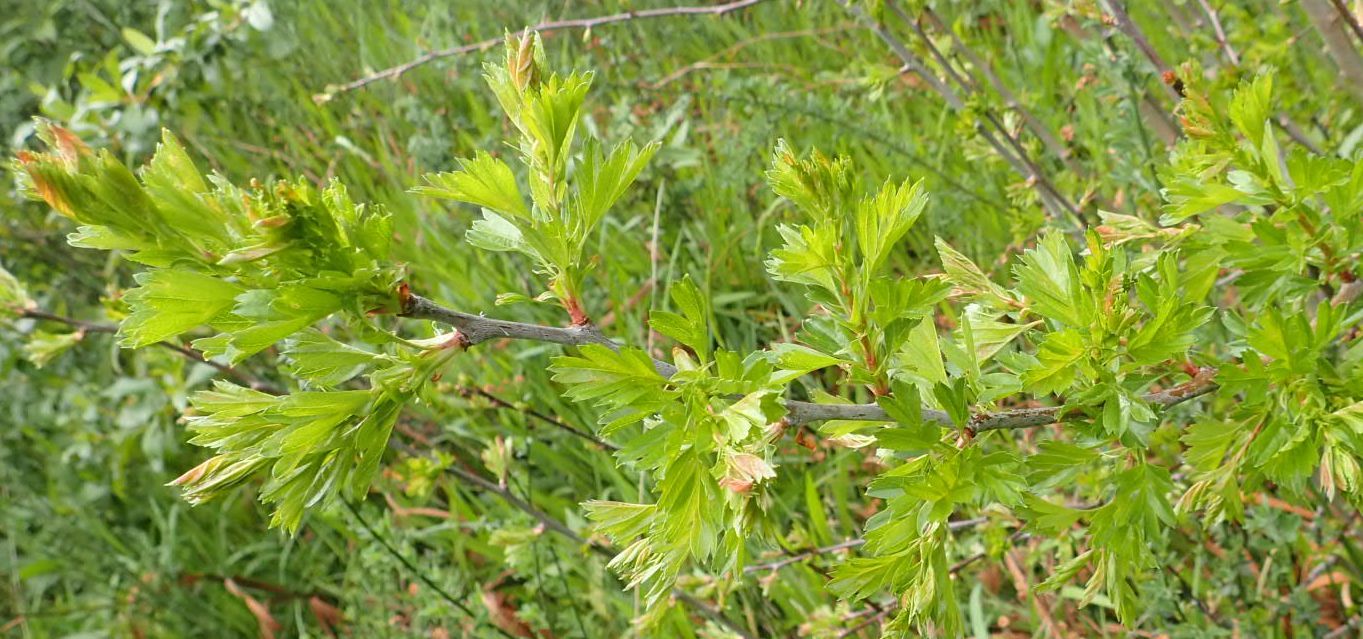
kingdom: Plantae
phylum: Tracheophyta
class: Magnoliopsida
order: Rosales
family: Rosaceae
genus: Crataegus
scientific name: Crataegus monogyna
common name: Hawthorn
